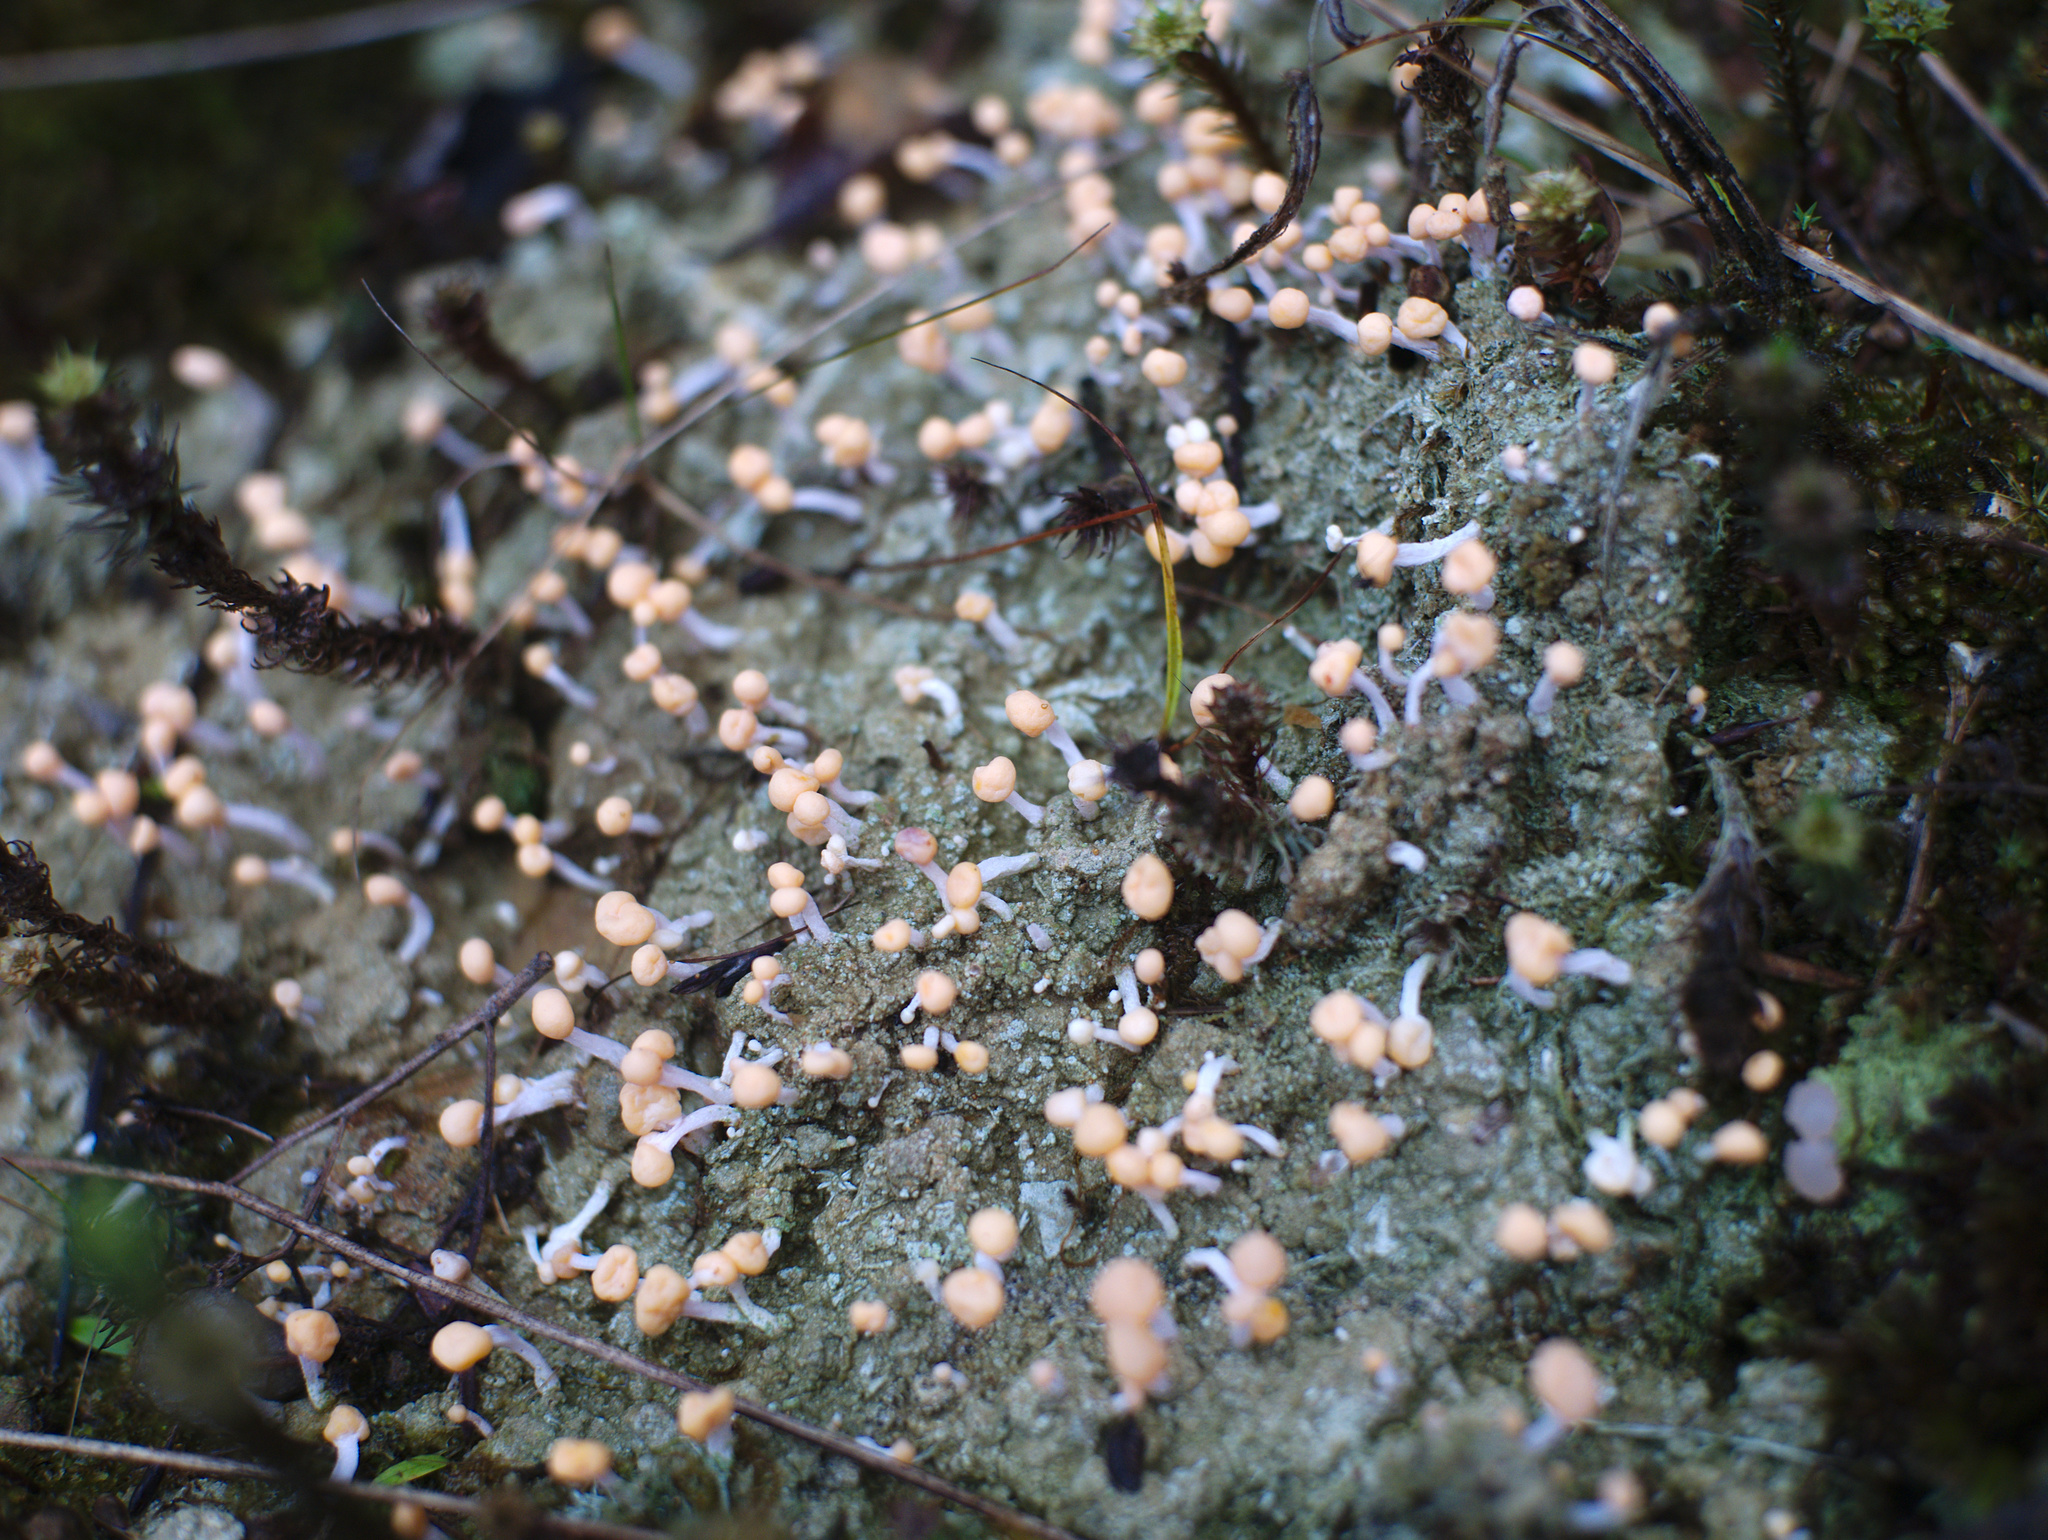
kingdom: Fungi
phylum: Ascomycota
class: Lecanoromycetes
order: Pertusariales
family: Icmadophilaceae
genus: Dibaeis
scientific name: Dibaeis arcuata
